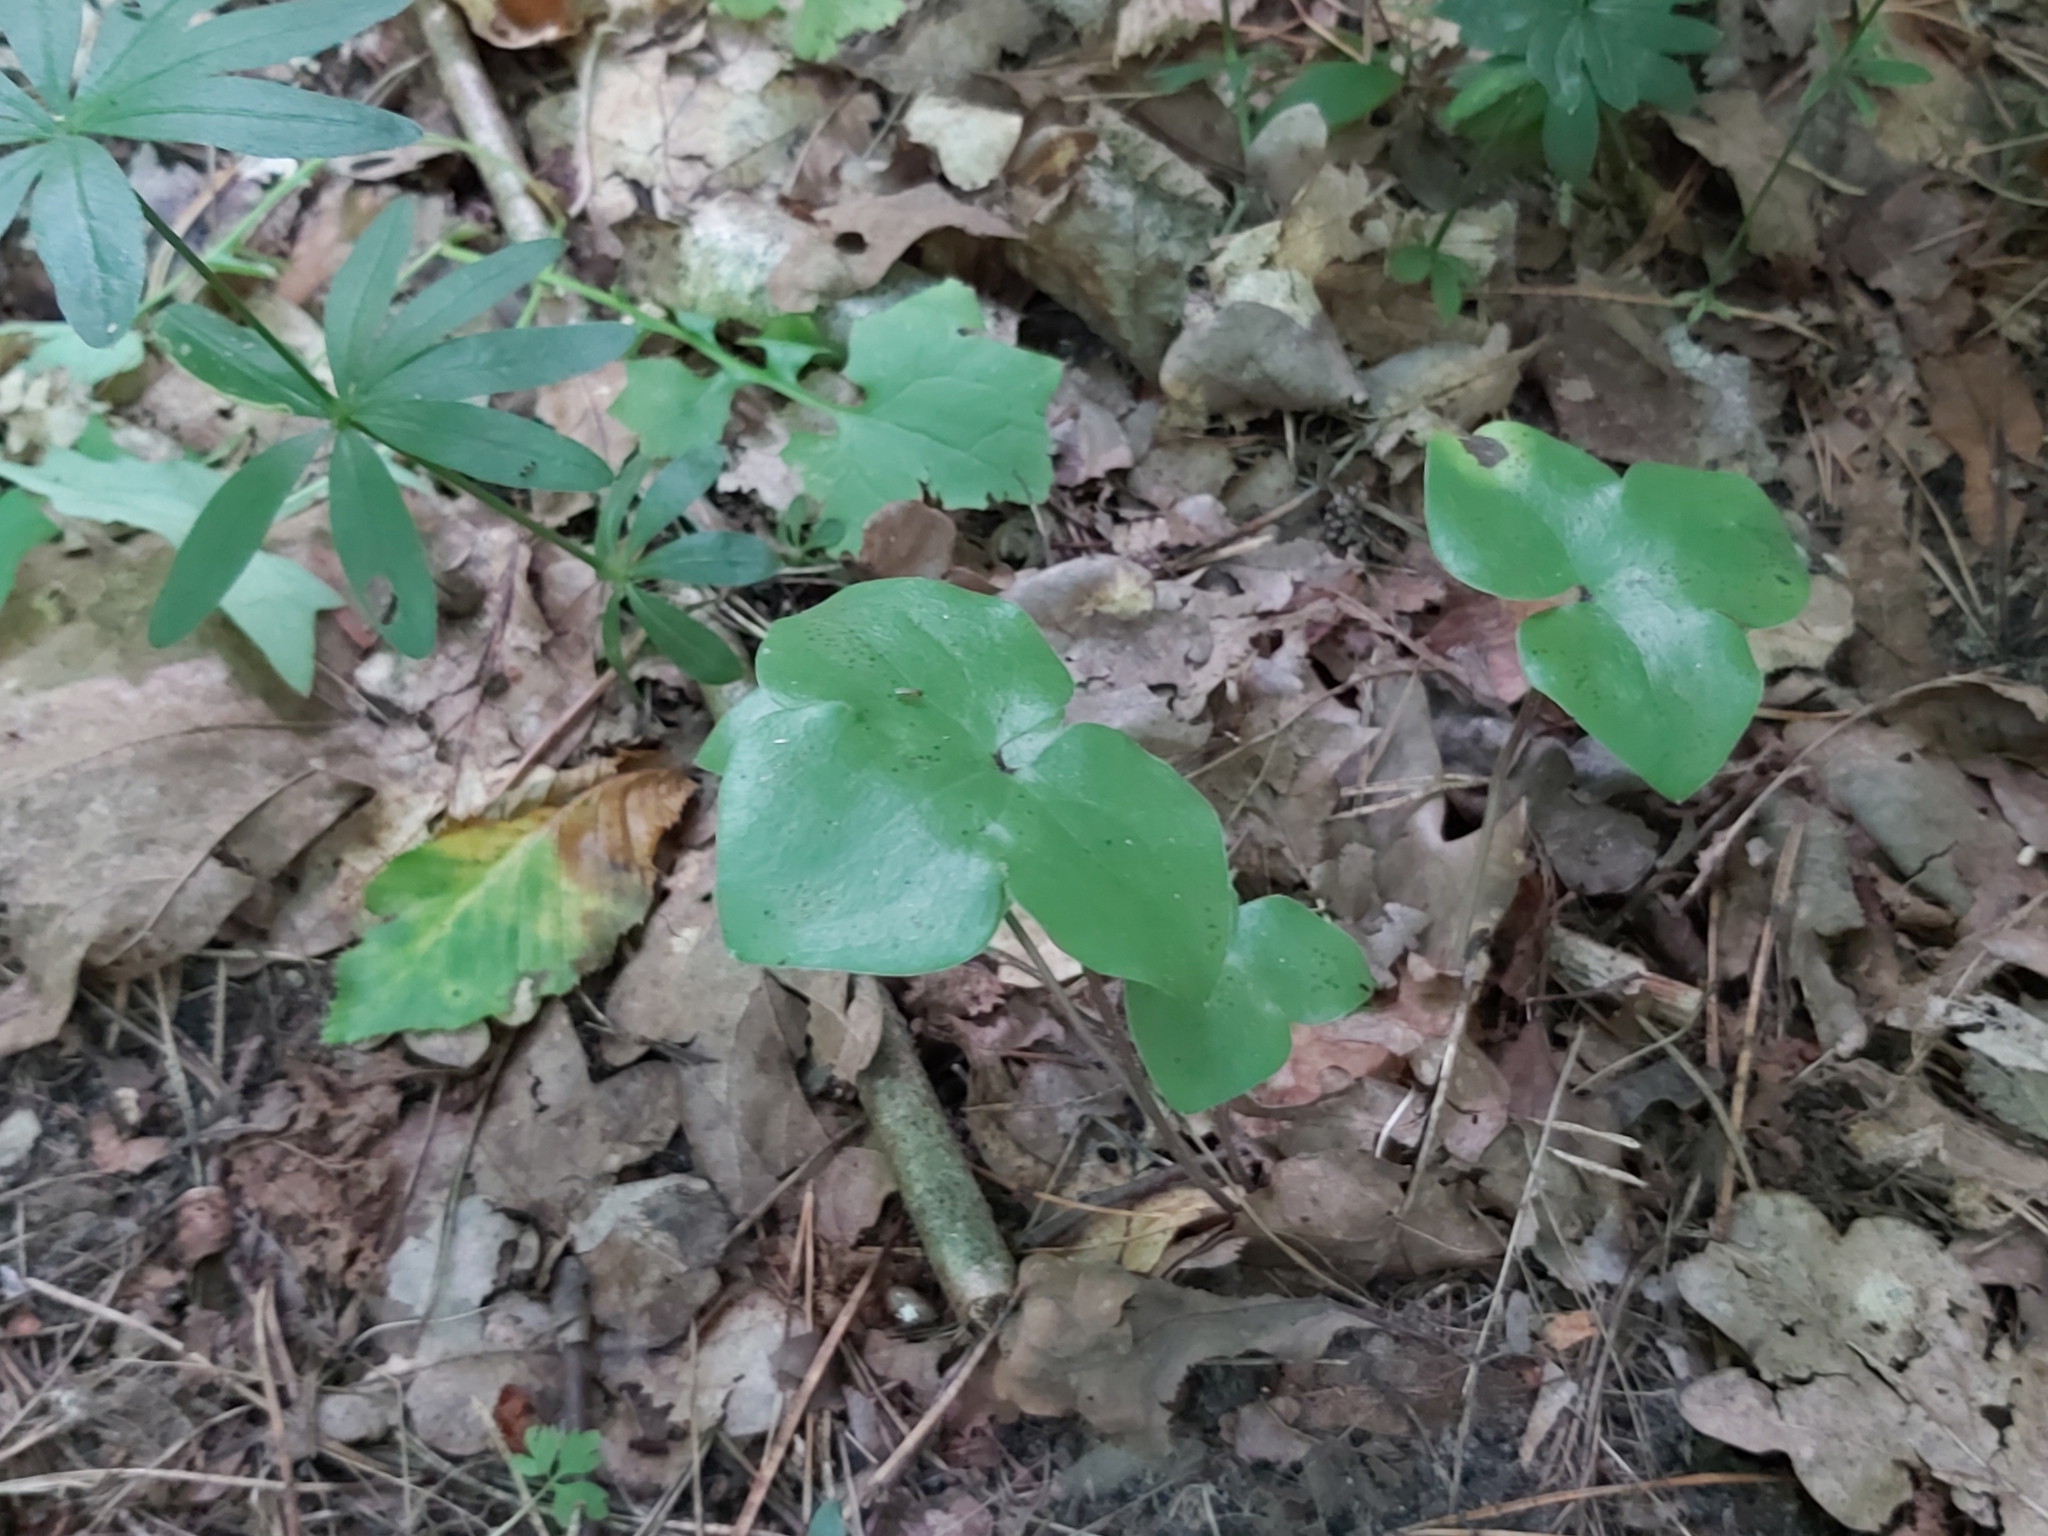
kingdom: Plantae
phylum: Tracheophyta
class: Magnoliopsida
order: Ranunculales
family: Ranunculaceae
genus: Hepatica
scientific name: Hepatica nobilis
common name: Liverleaf
